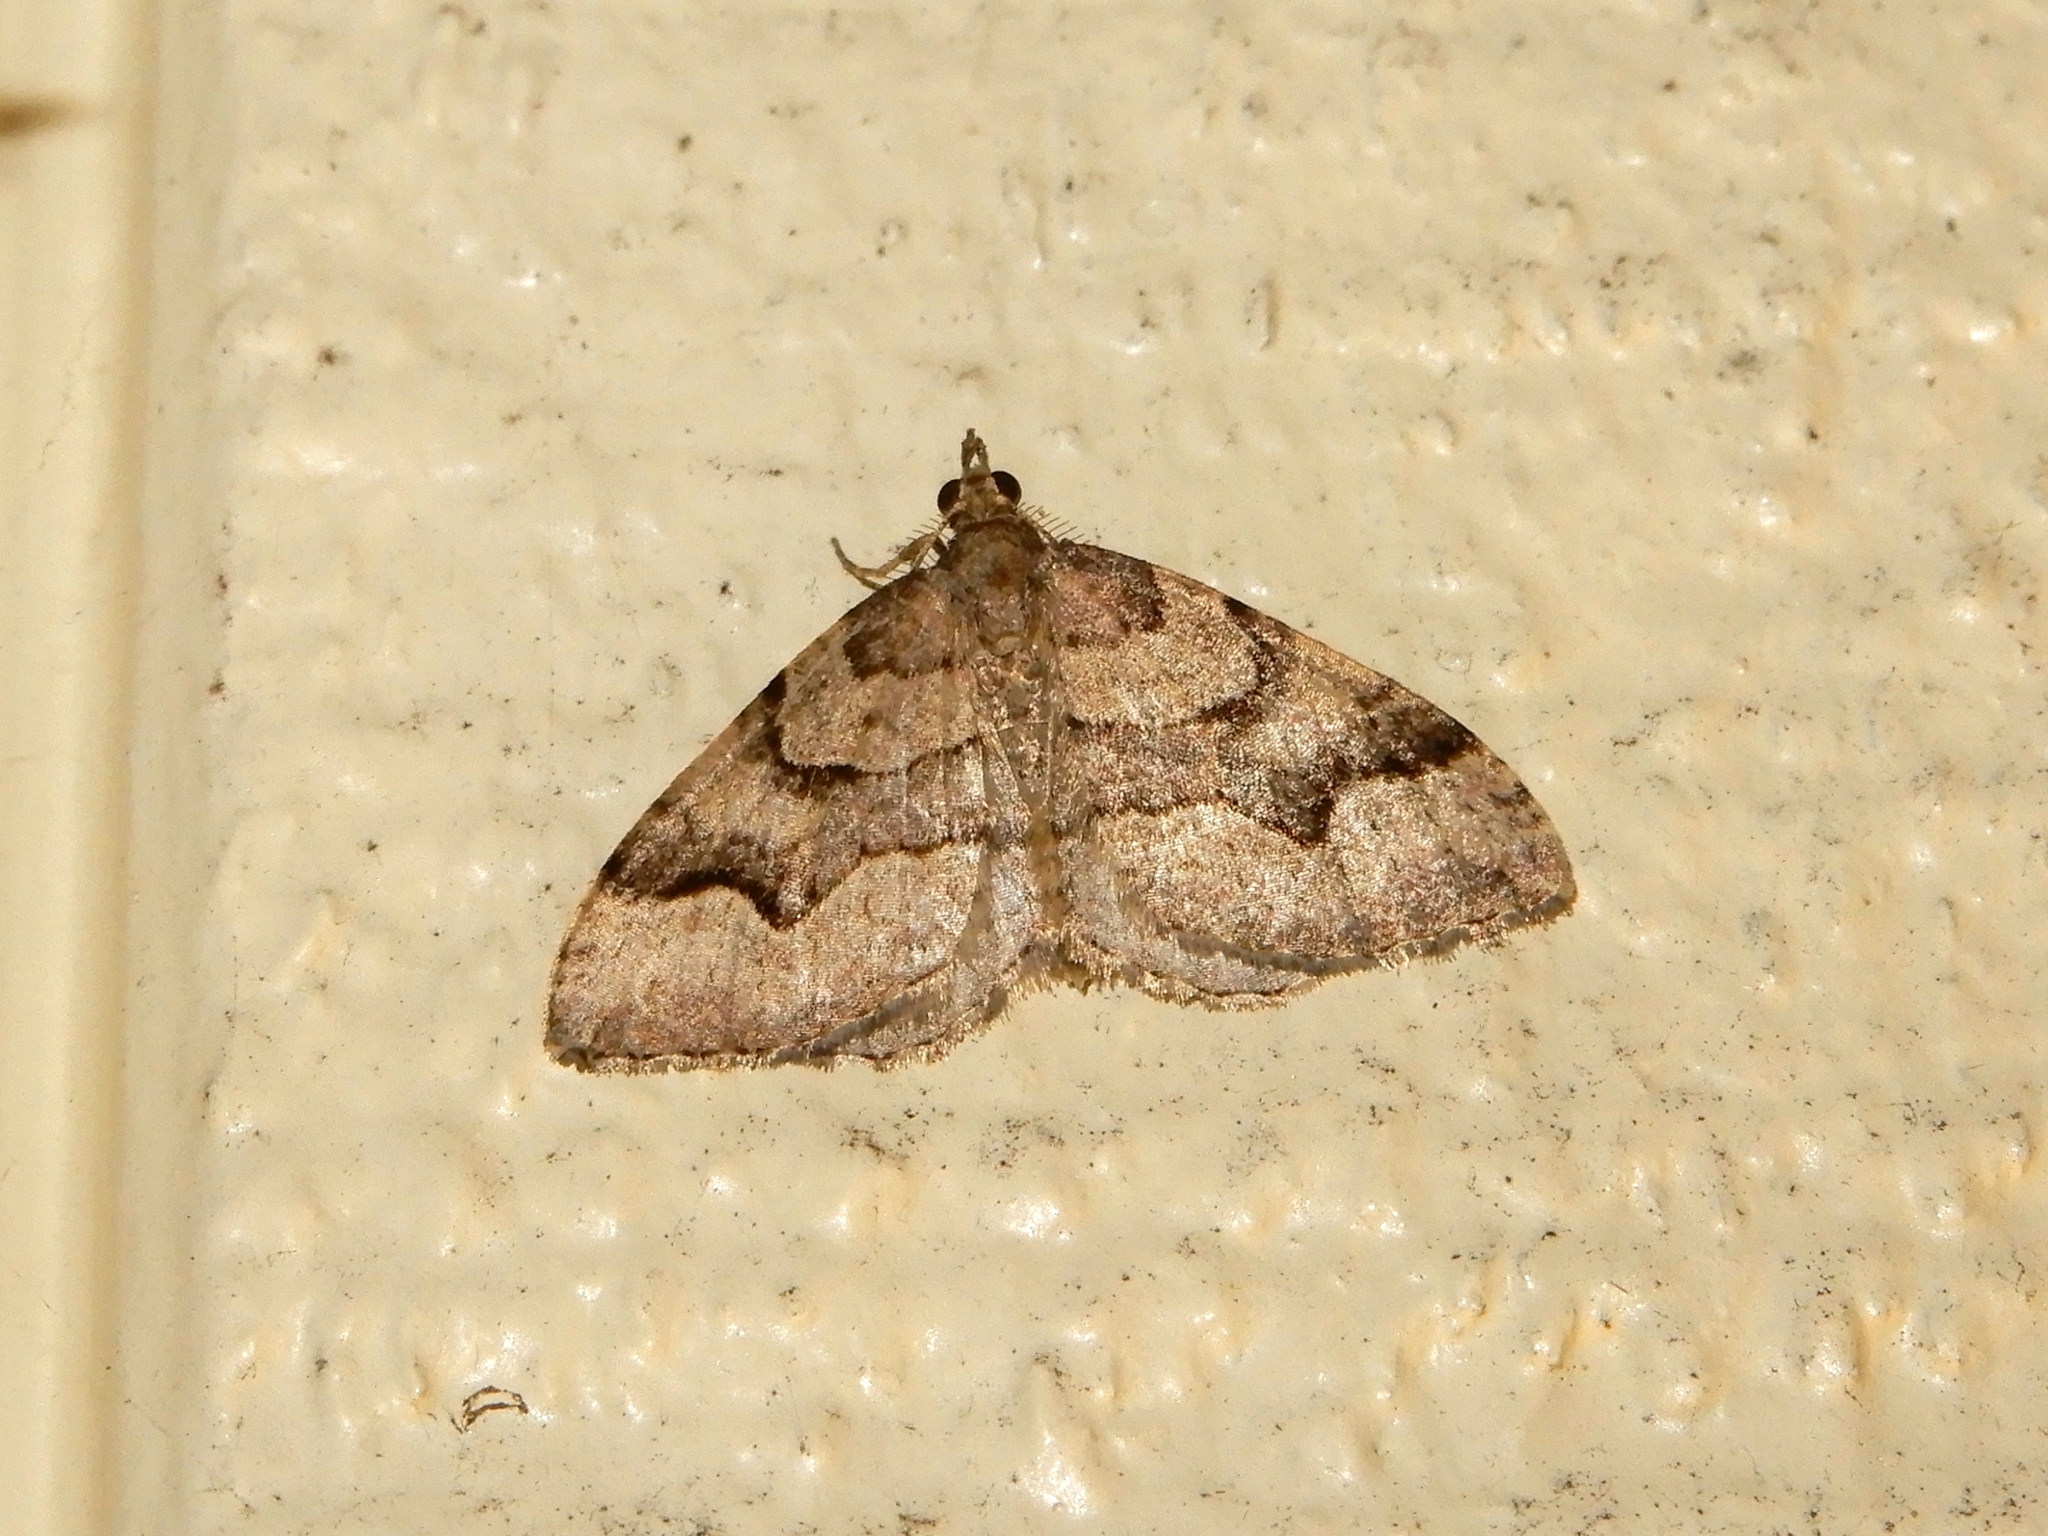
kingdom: Animalia
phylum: Arthropoda
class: Insecta
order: Lepidoptera
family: Geometridae
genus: Epyaxa
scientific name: Epyaxa rosearia
